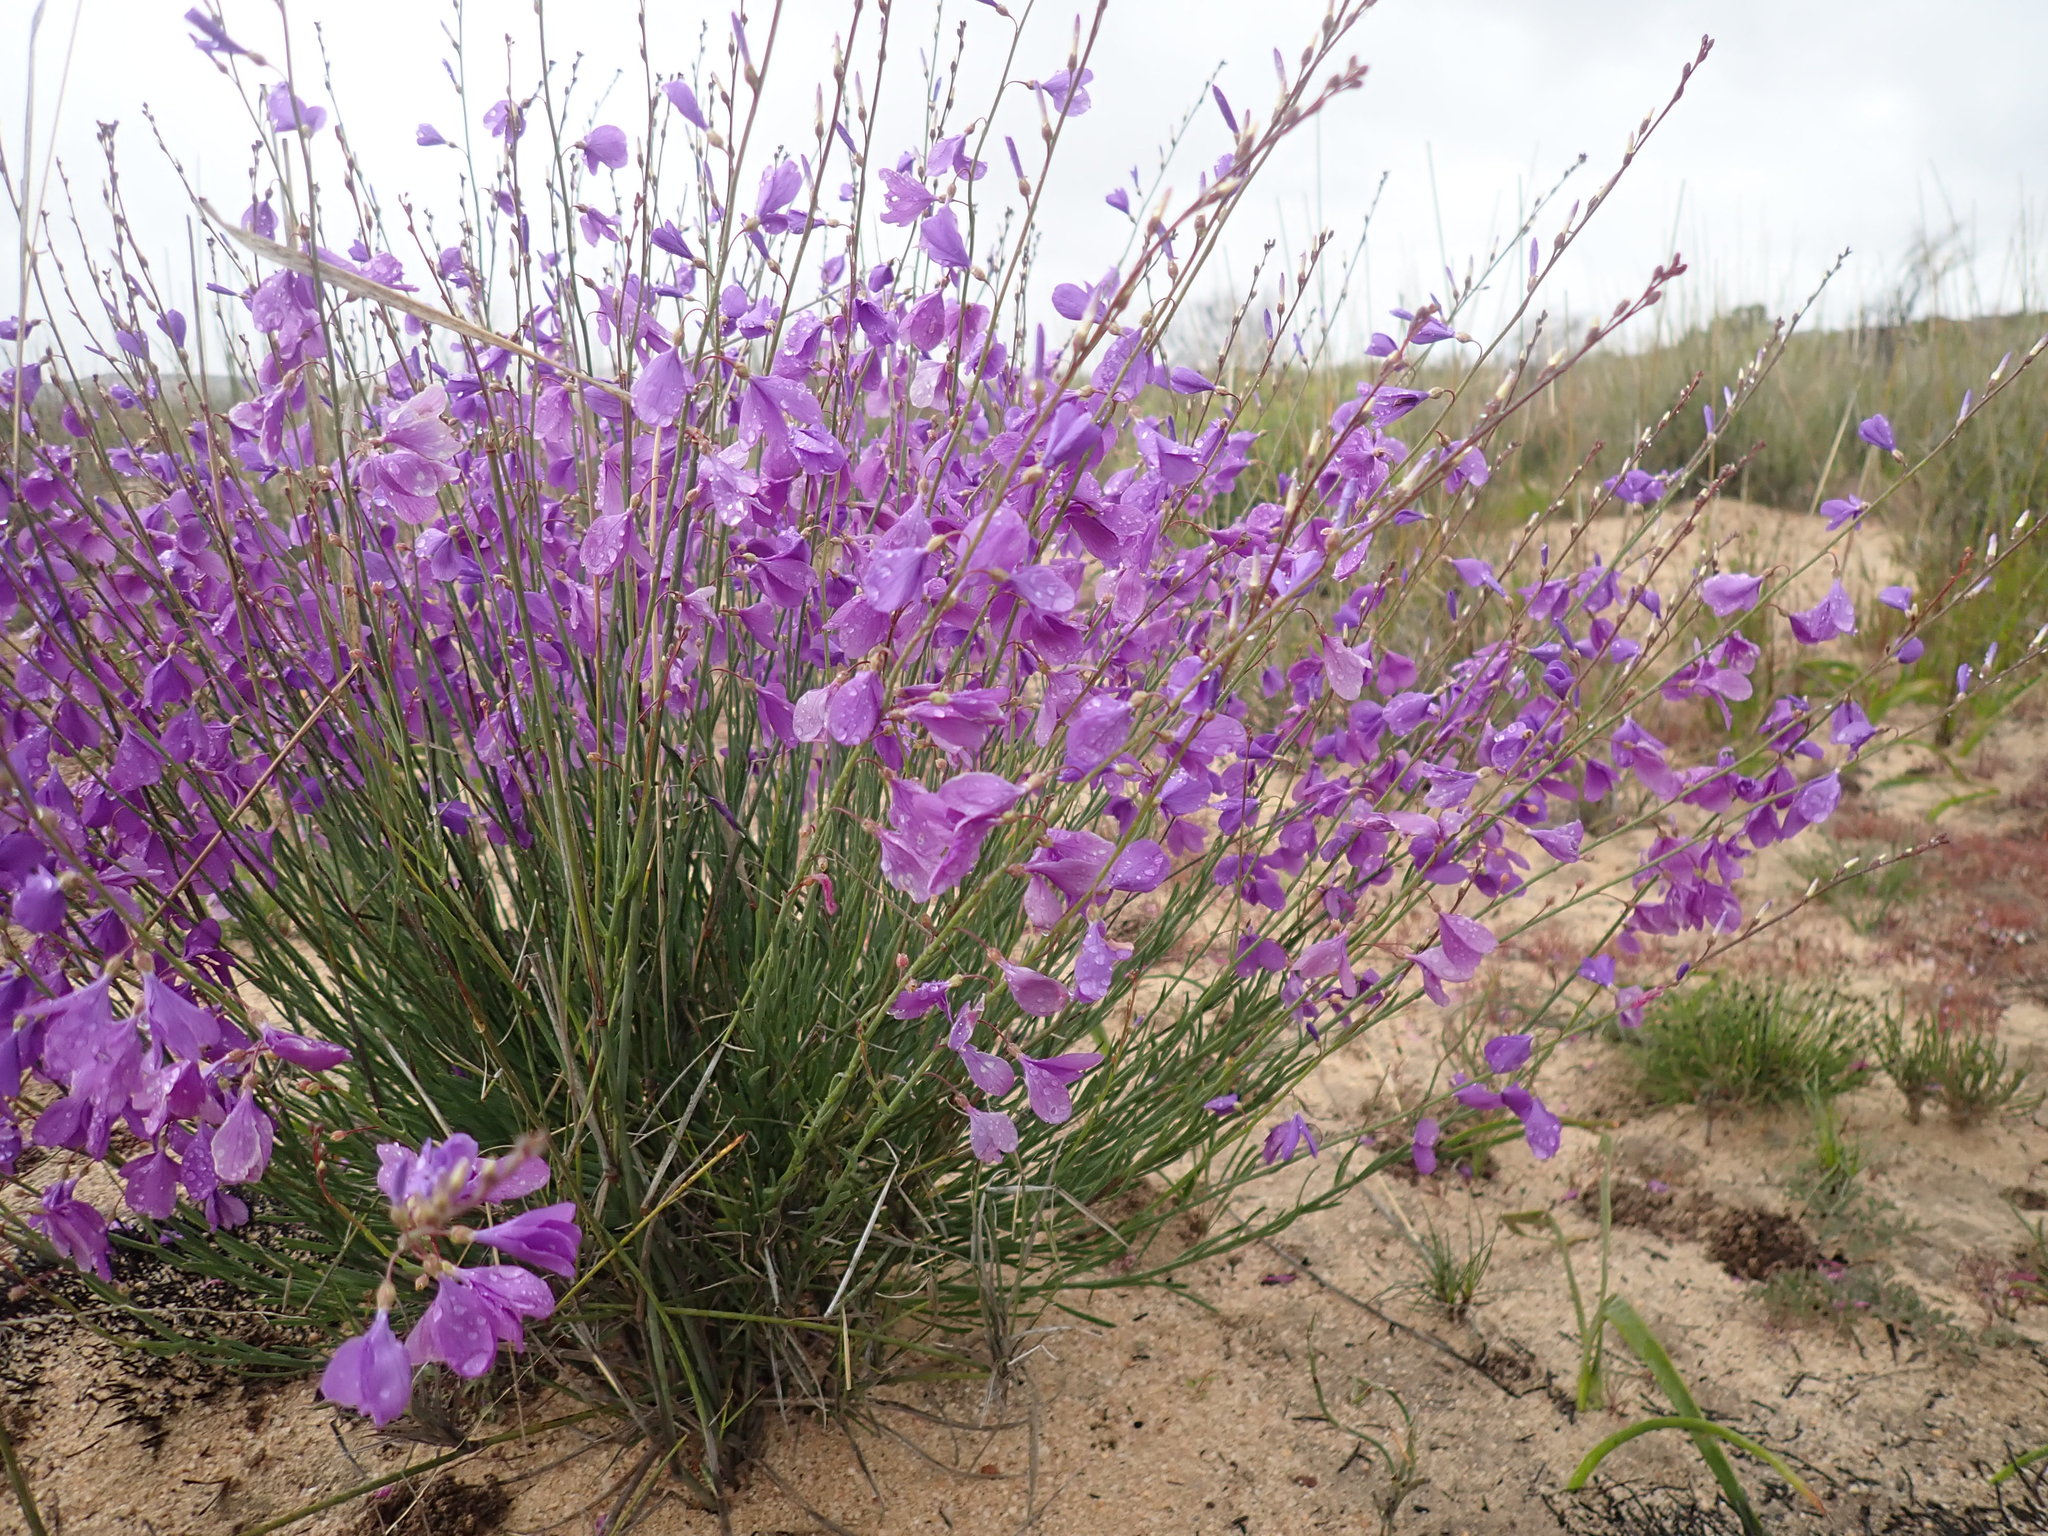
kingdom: Plantae
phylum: Tracheophyta
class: Magnoliopsida
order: Brassicales
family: Brassicaceae
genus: Heliophila
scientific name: Heliophila juncea
